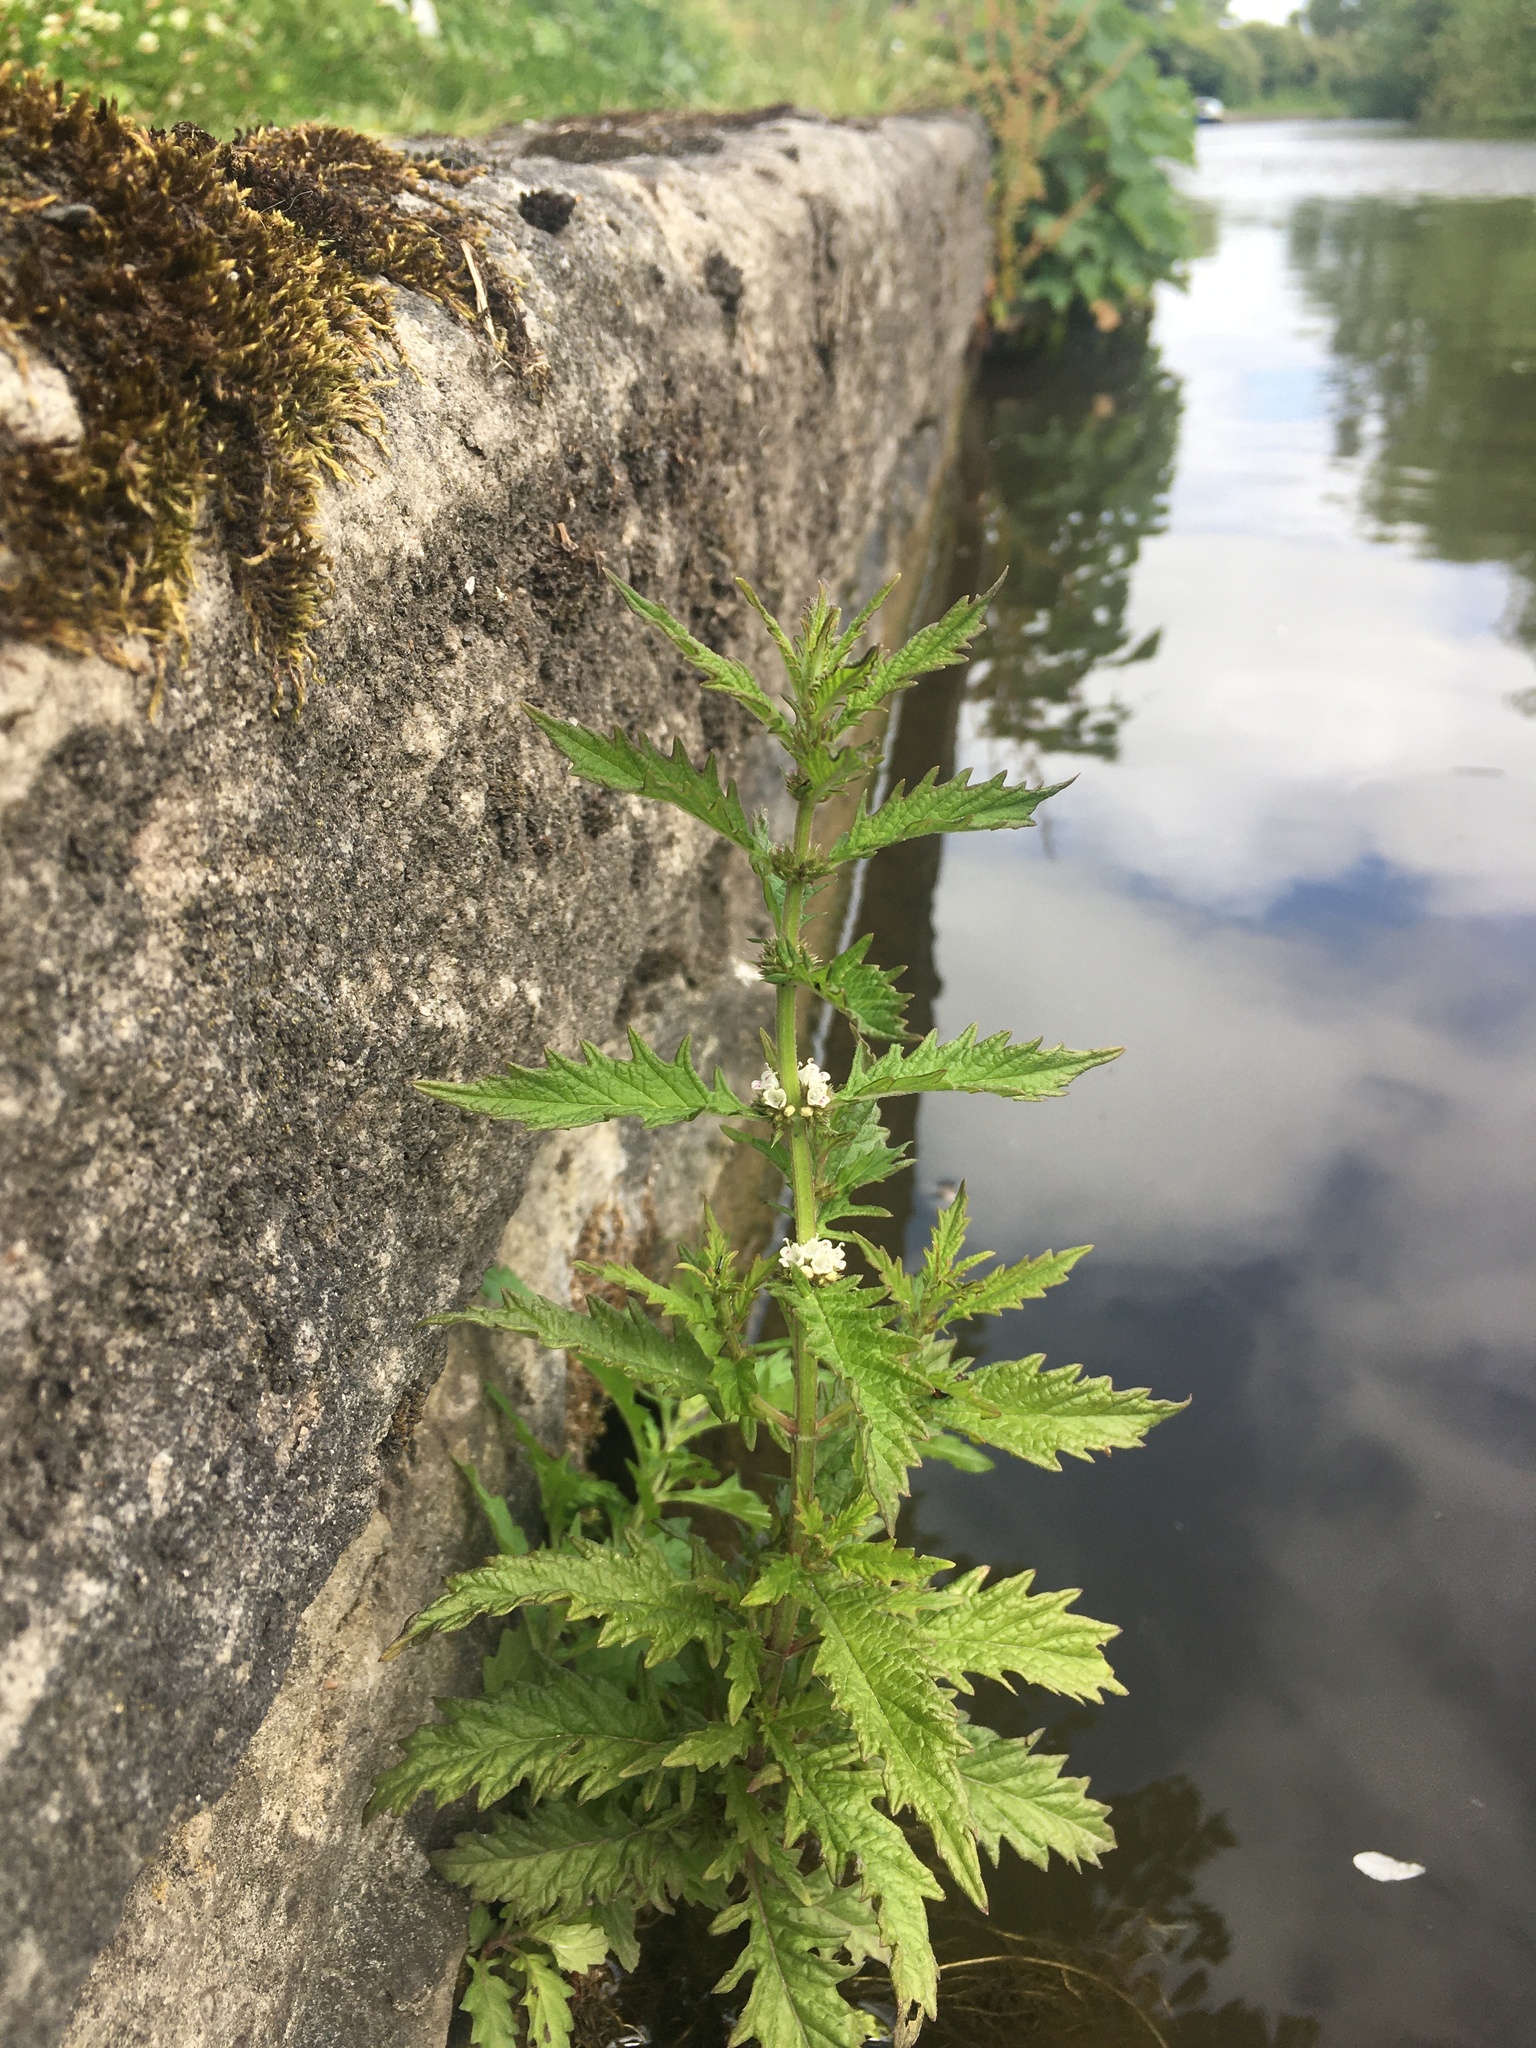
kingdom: Plantae
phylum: Tracheophyta
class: Magnoliopsida
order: Lamiales
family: Lamiaceae
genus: Lycopus
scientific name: Lycopus europaeus
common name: European bugleweed
